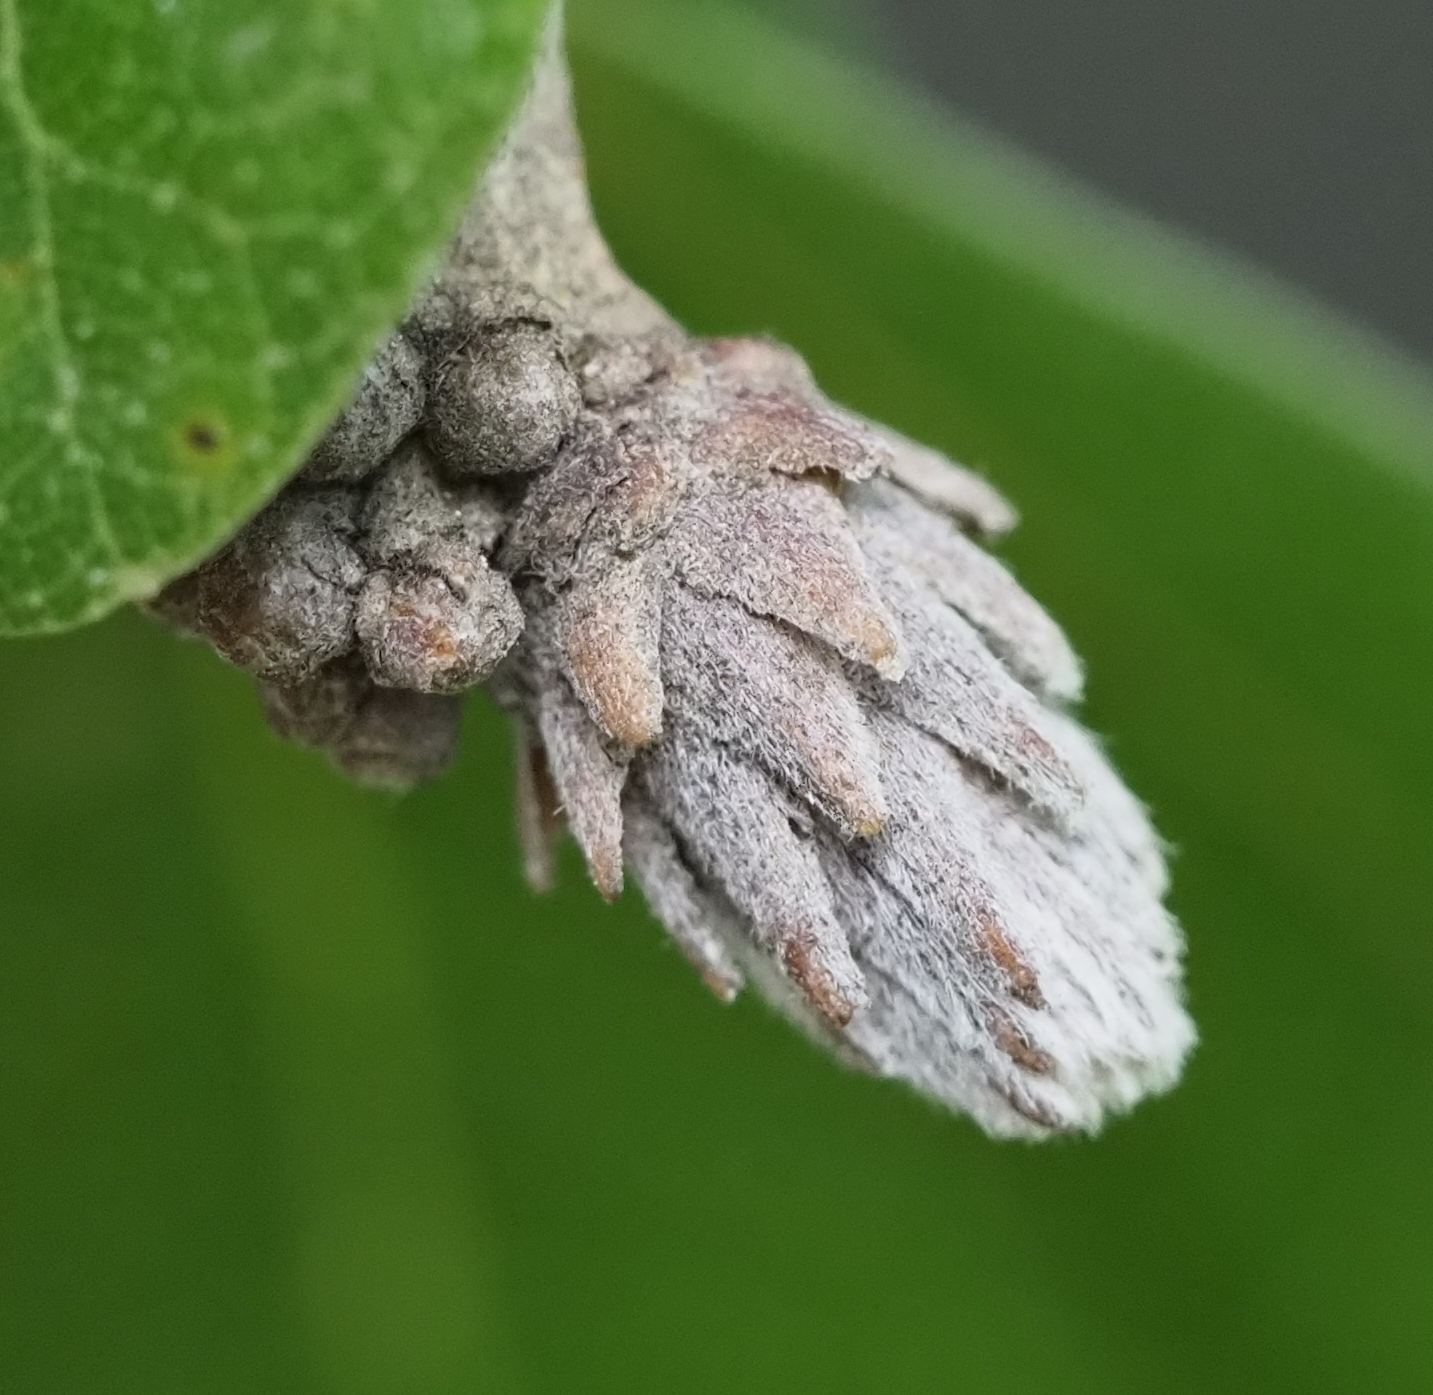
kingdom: Animalia
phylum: Arthropoda
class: Insecta
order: Diptera
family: Cecidomyiidae
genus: Arnoldiola
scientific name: Arnoldiola atra
